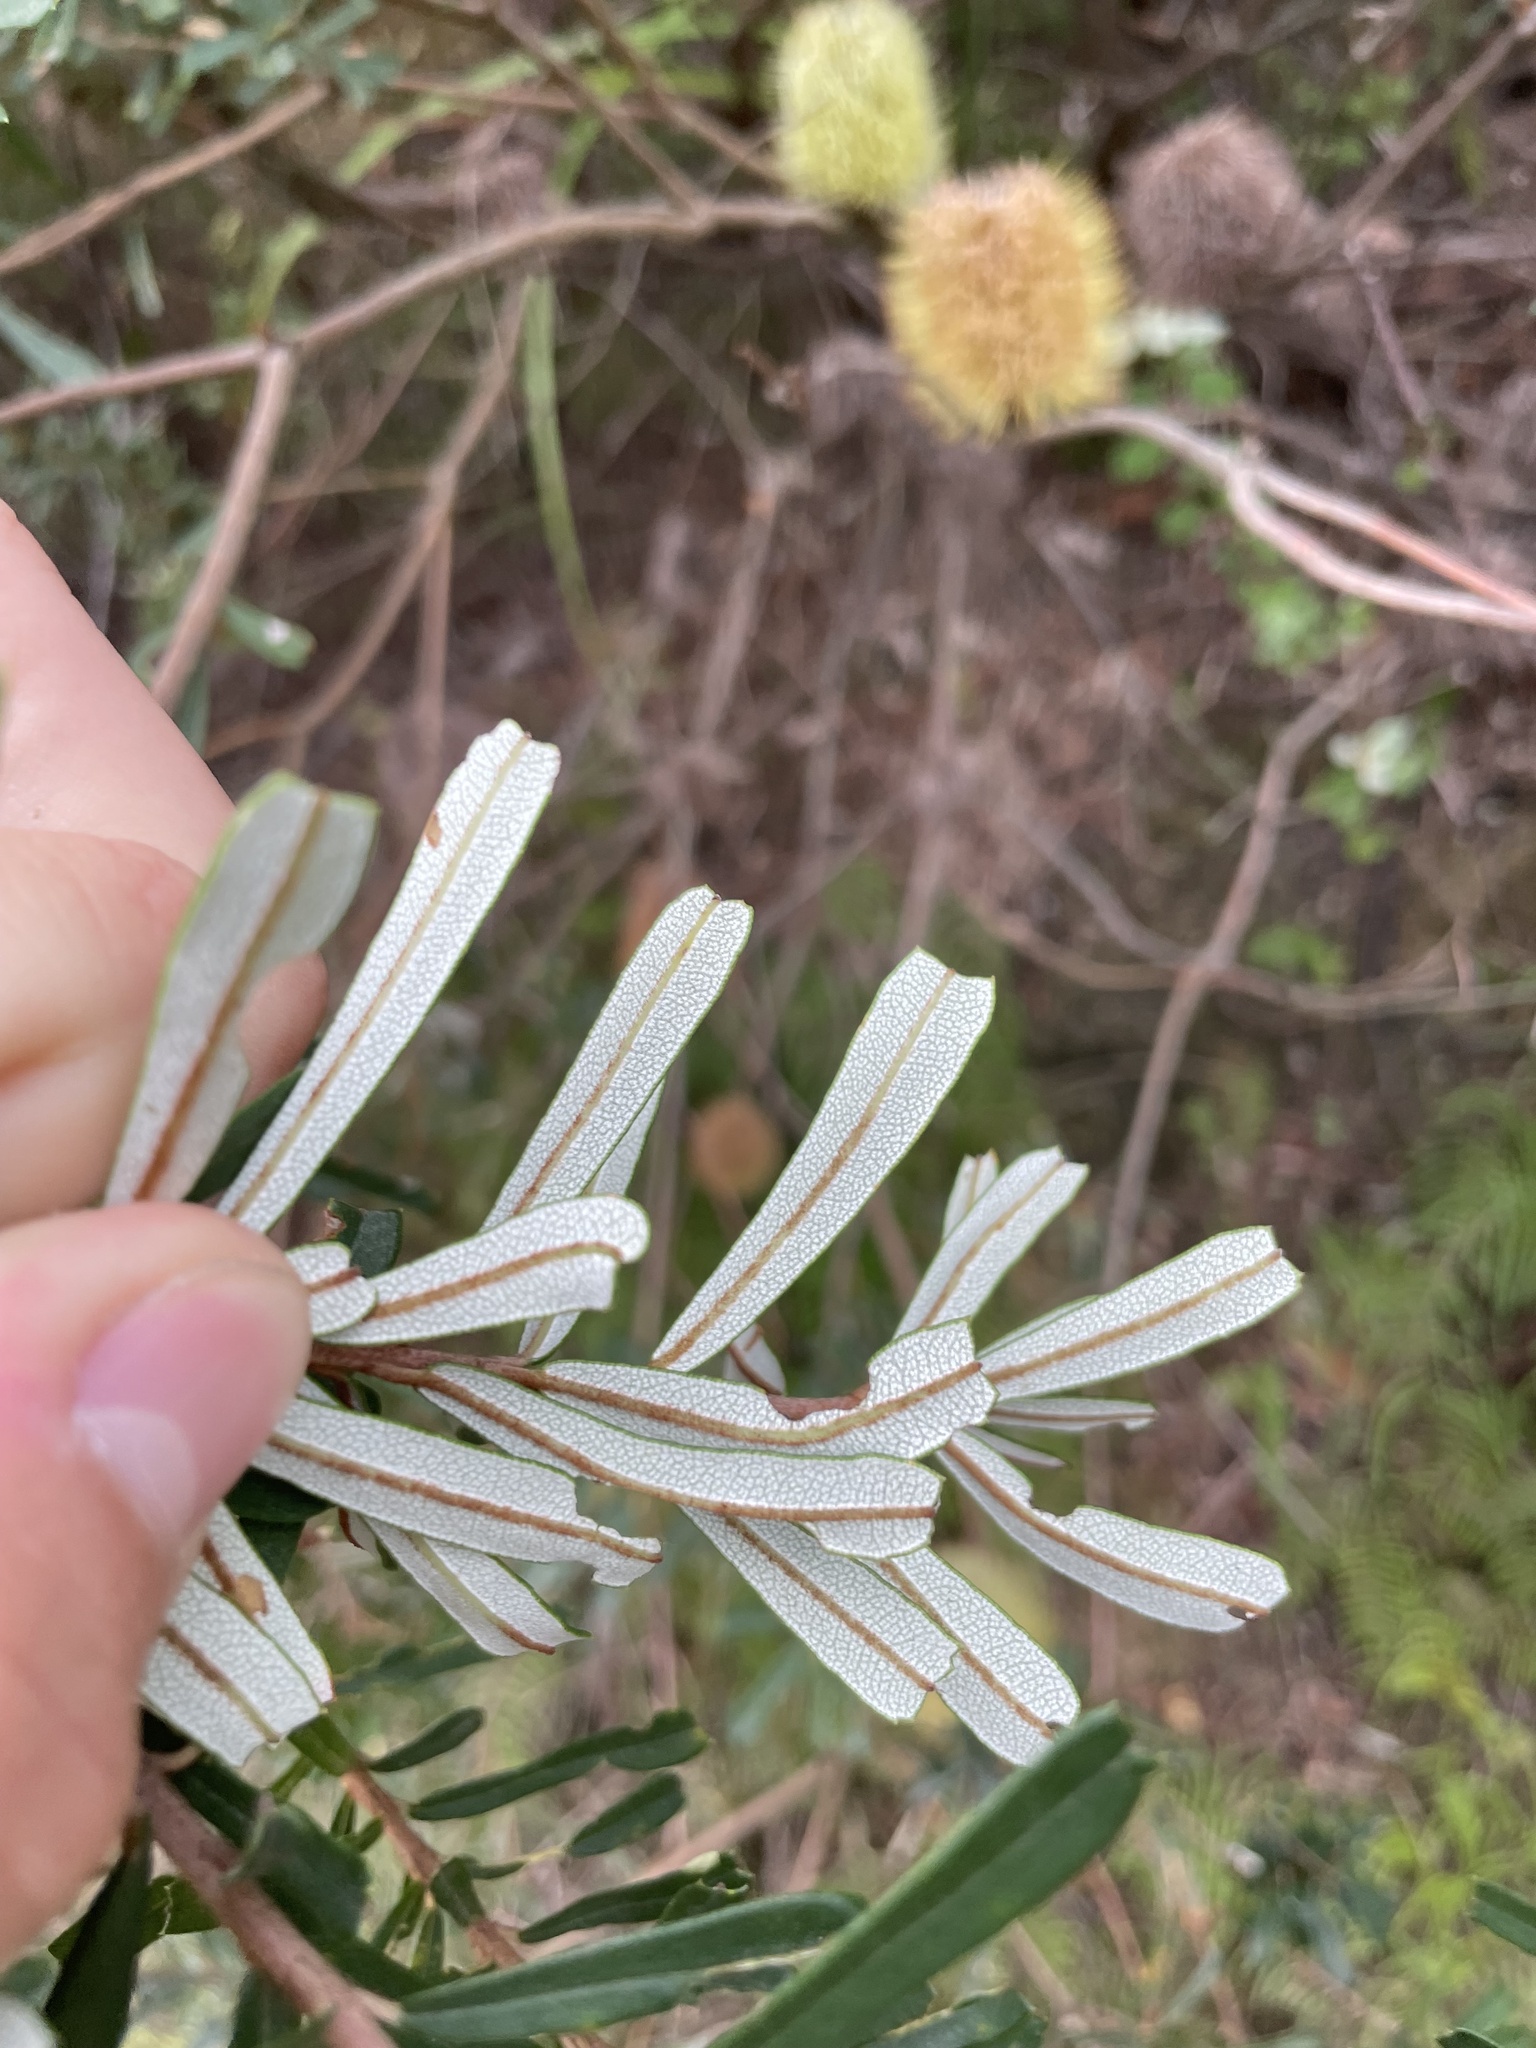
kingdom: Plantae
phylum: Tracheophyta
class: Magnoliopsida
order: Proteales
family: Proteaceae
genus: Banksia
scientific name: Banksia marginata
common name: Silver banksia
